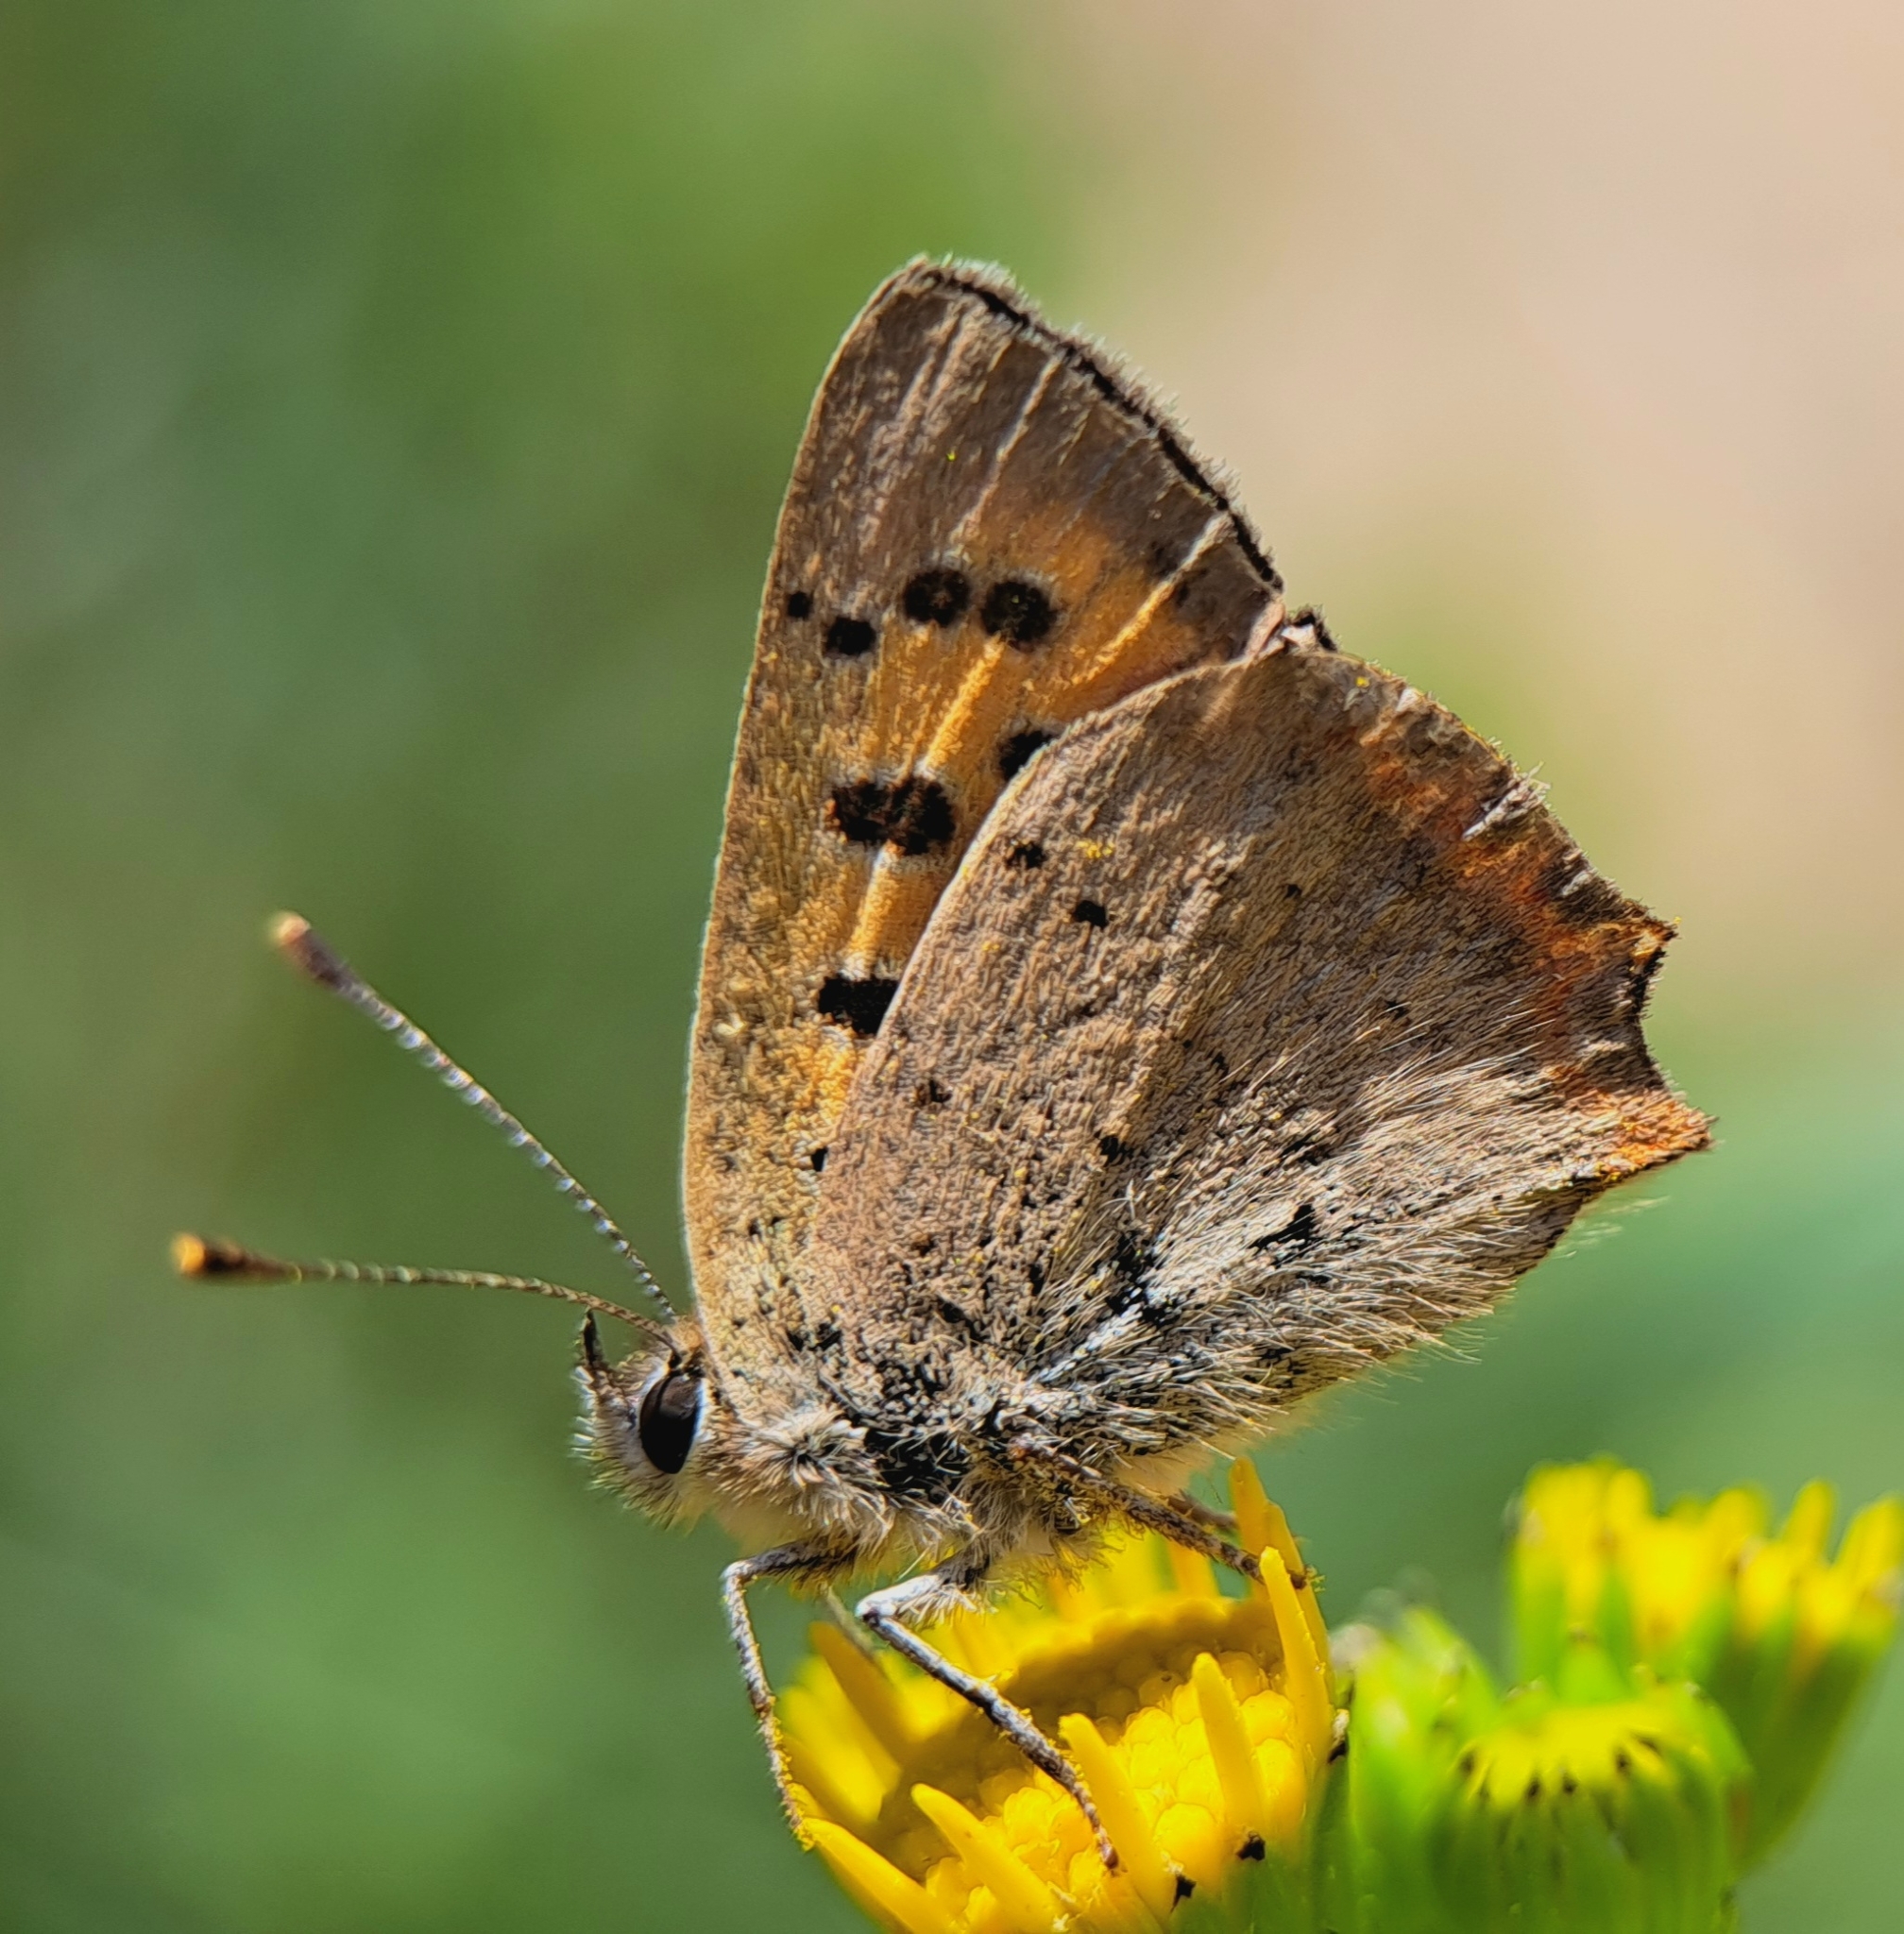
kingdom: Animalia
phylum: Arthropoda
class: Insecta
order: Lepidoptera
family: Lycaenidae
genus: Lycaena
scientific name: Lycaena phlaeas
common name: Small copper
